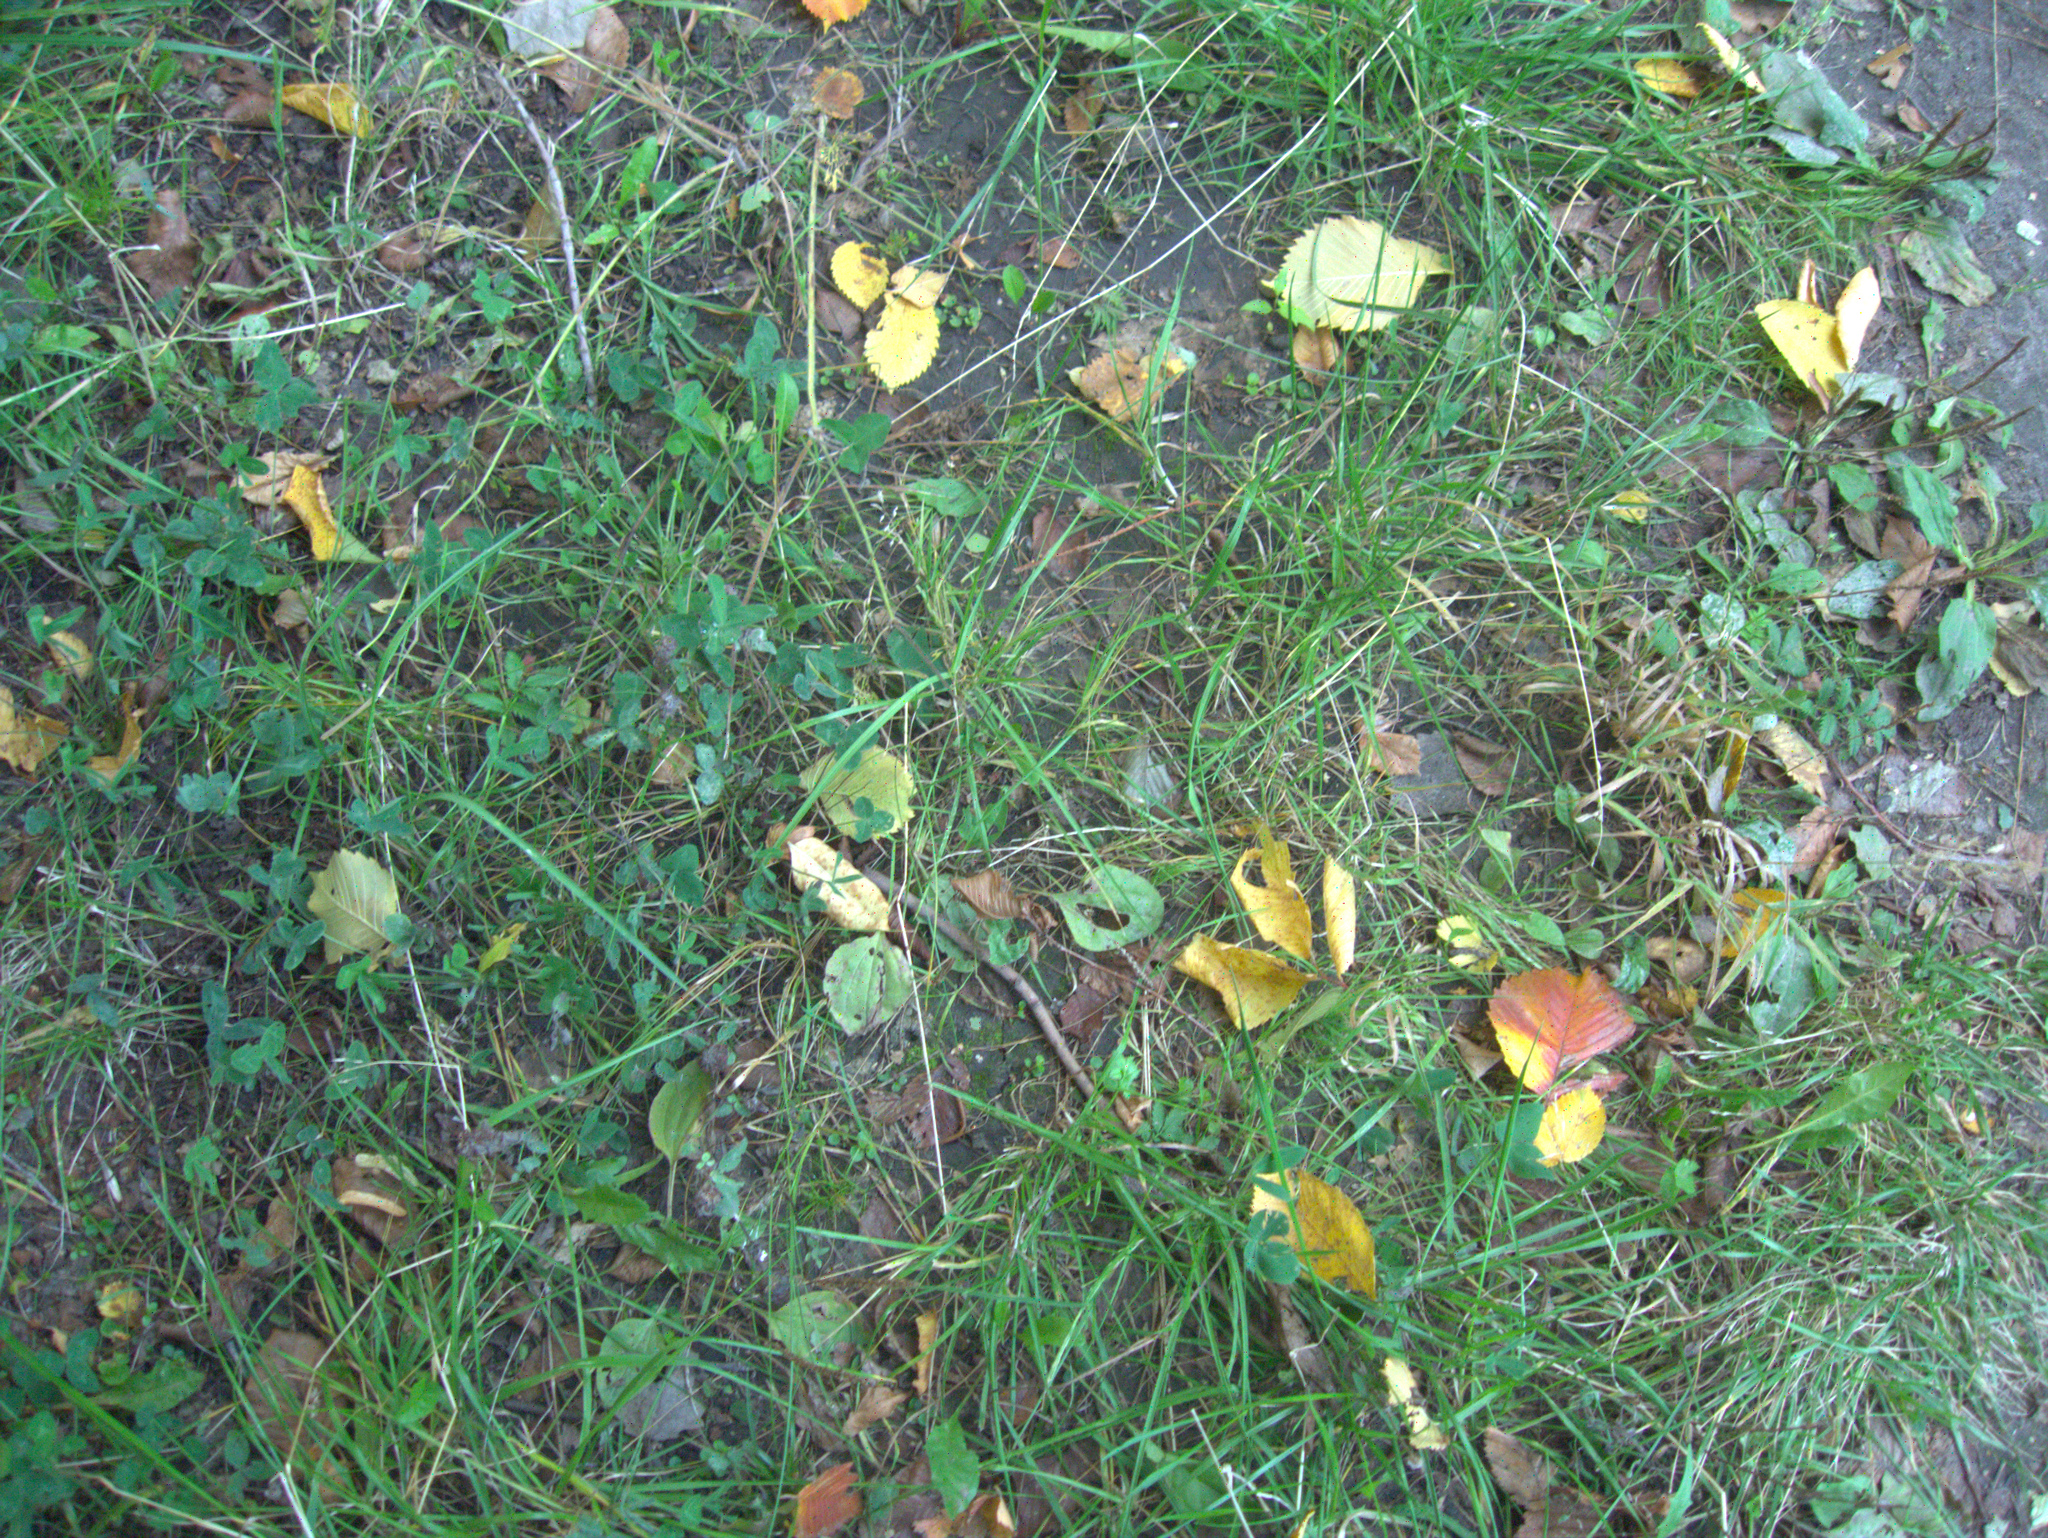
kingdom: Plantae
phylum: Tracheophyta
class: Magnoliopsida
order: Fabales
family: Fabaceae
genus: Trifolium
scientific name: Trifolium pratense
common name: Red clover
